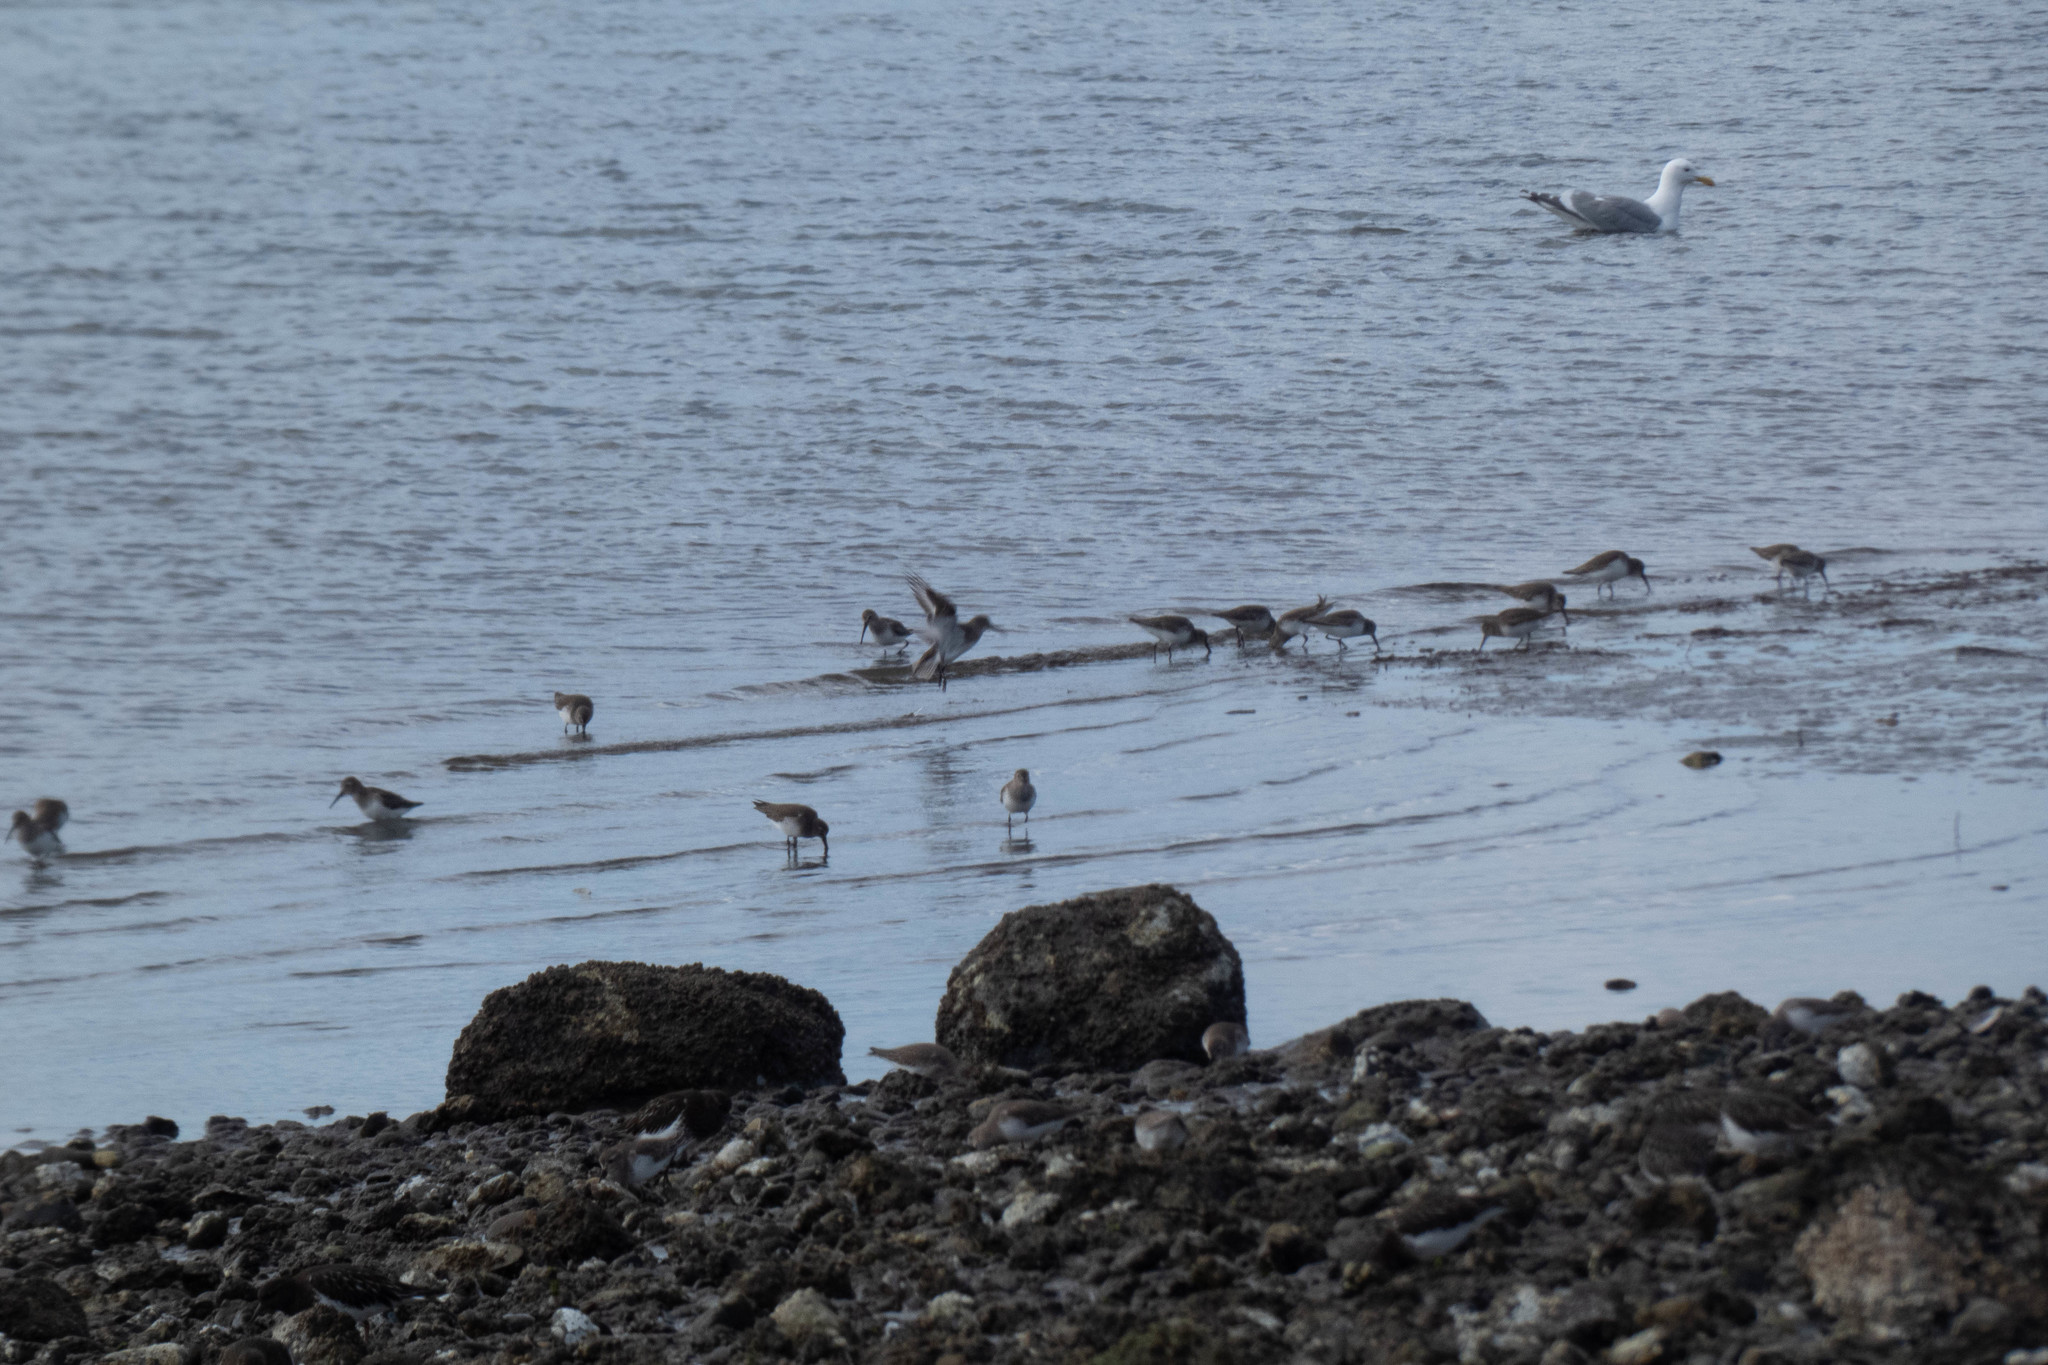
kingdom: Animalia
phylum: Chordata
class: Aves
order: Charadriiformes
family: Scolopacidae
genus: Calidris
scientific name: Calidris alpina
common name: Dunlin
